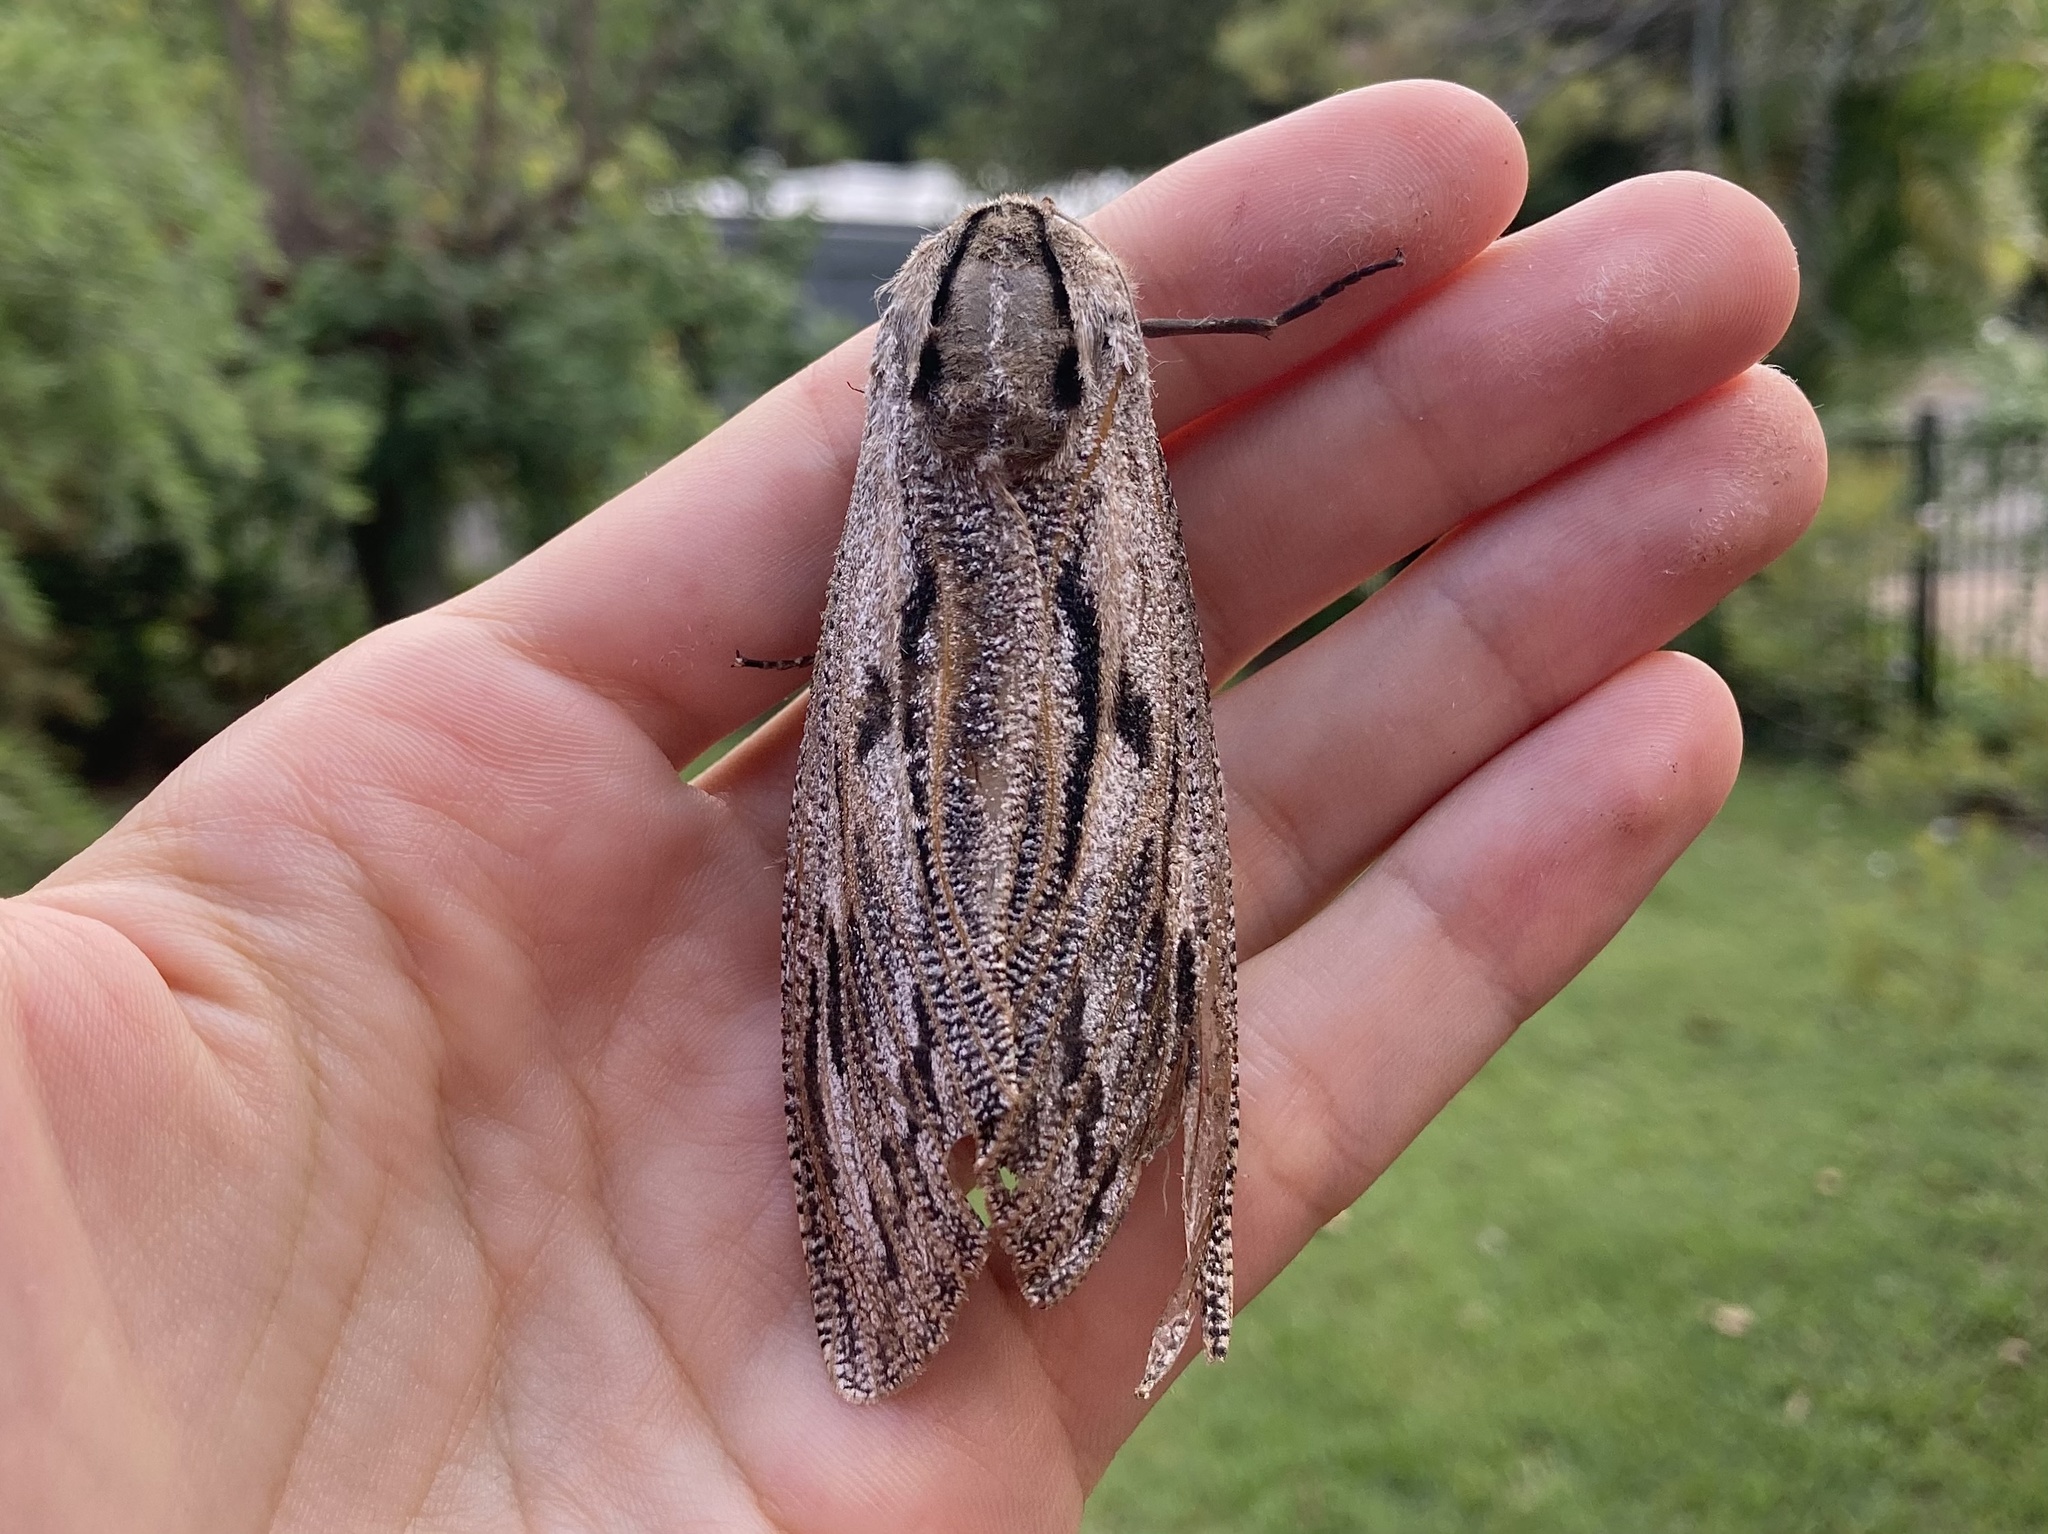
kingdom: Animalia
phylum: Arthropoda
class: Insecta
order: Lepidoptera
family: Cossidae
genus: Endoxyla
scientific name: Endoxyla liturata
